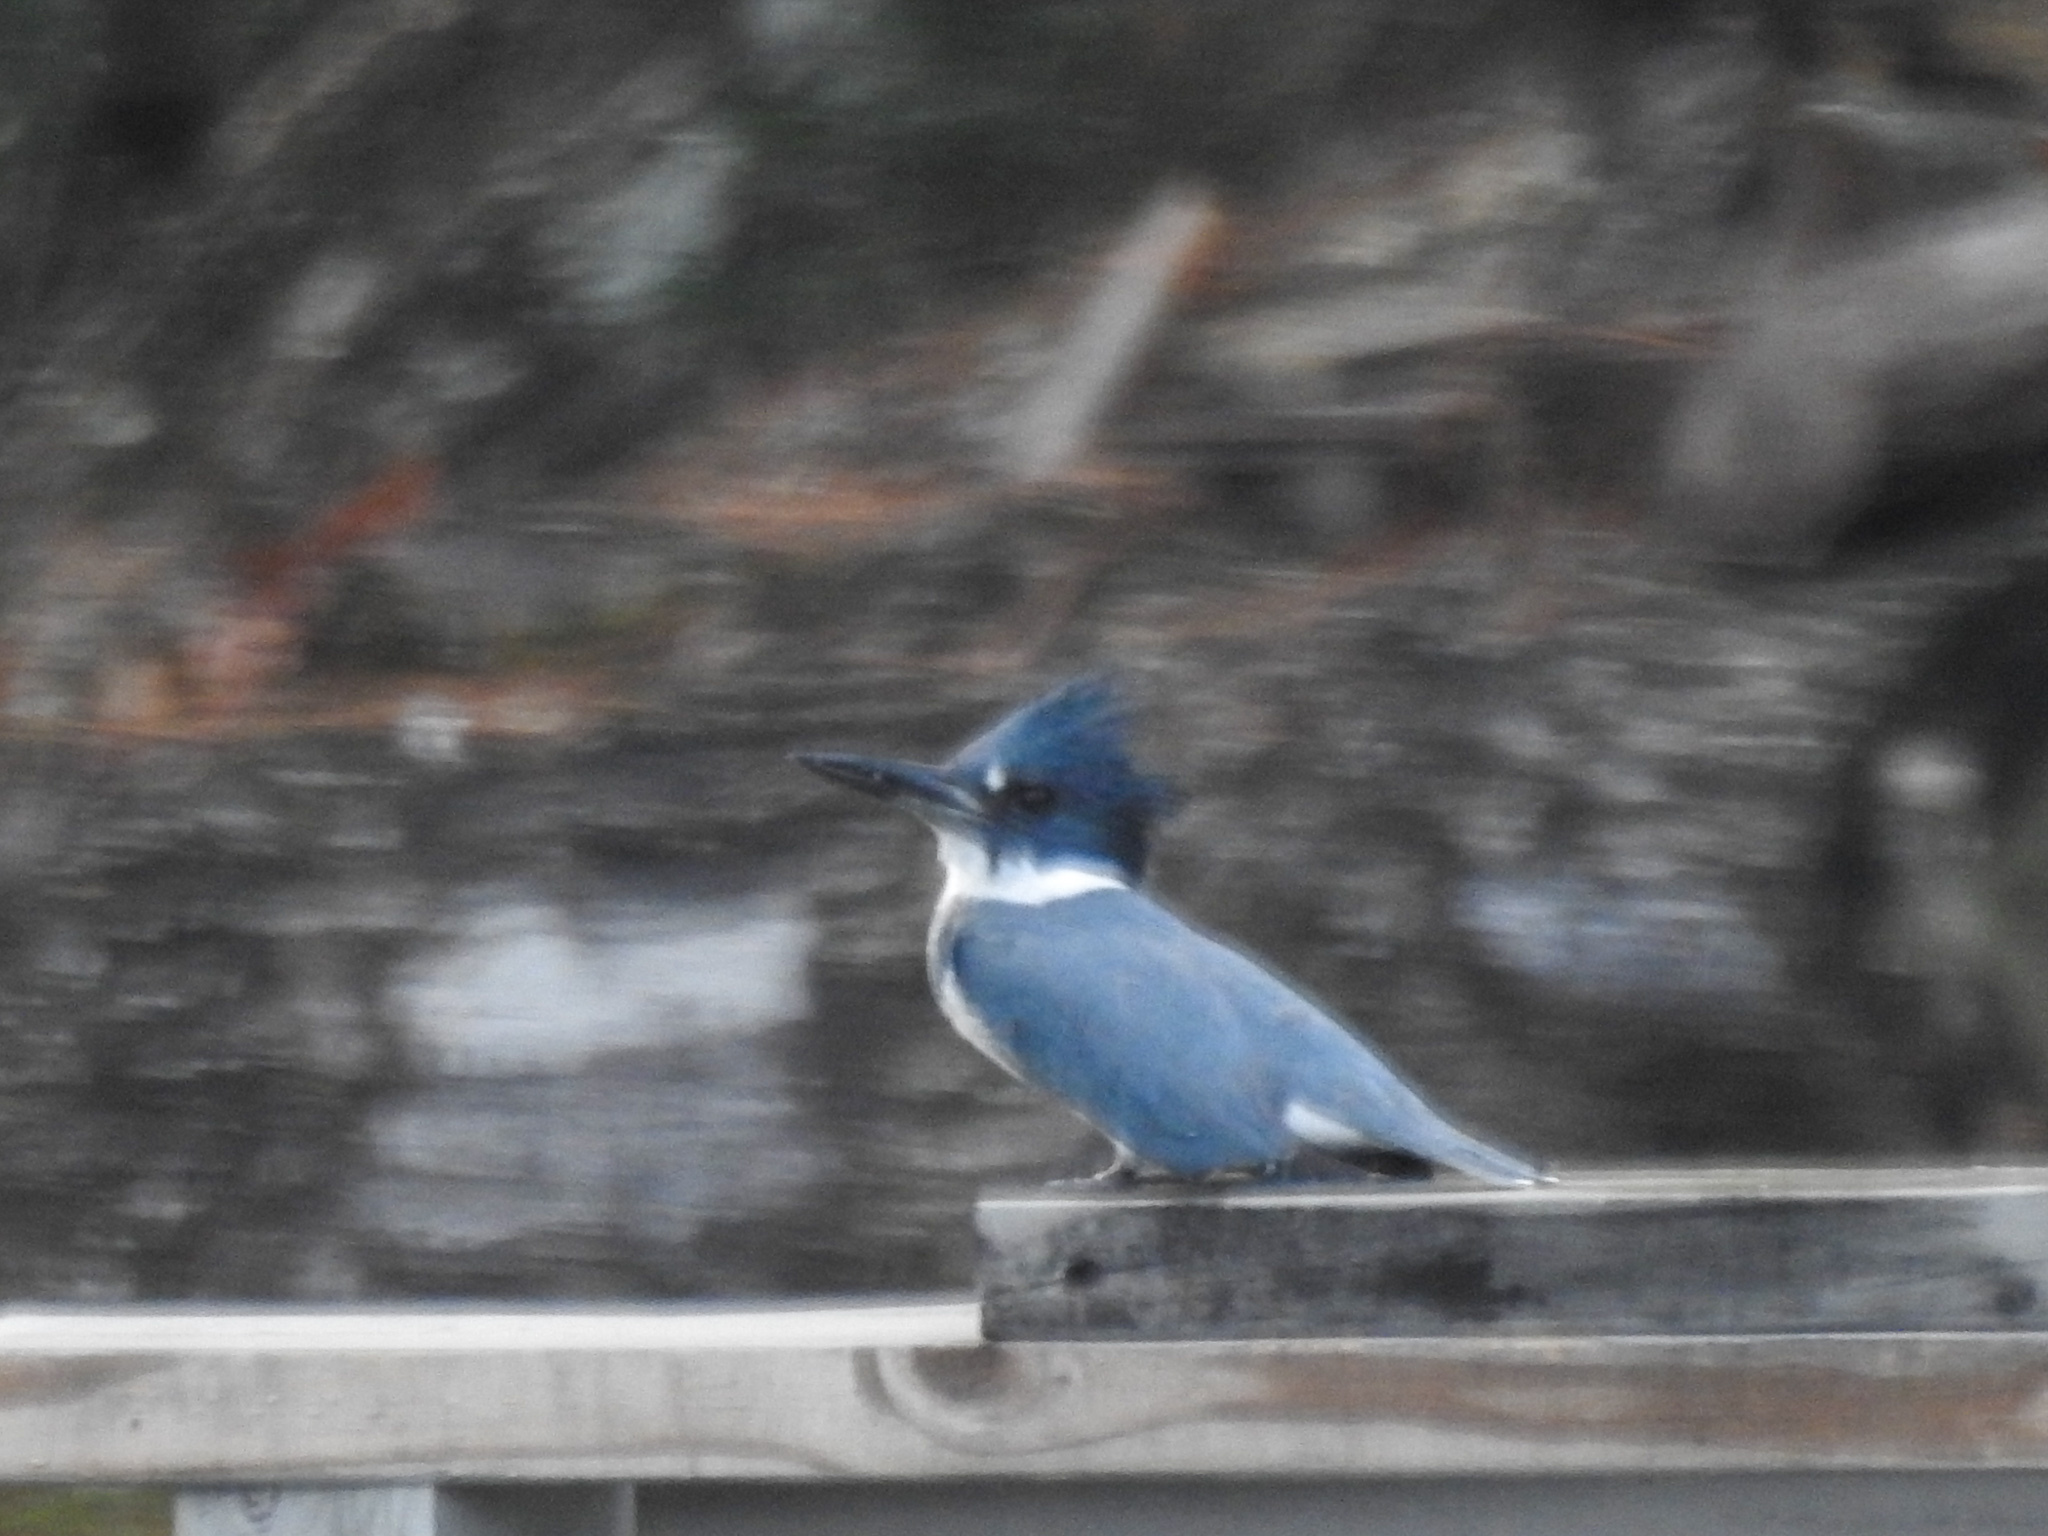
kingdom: Animalia
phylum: Chordata
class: Aves
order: Coraciiformes
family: Alcedinidae
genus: Megaceryle
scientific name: Megaceryle alcyon
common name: Belted kingfisher
